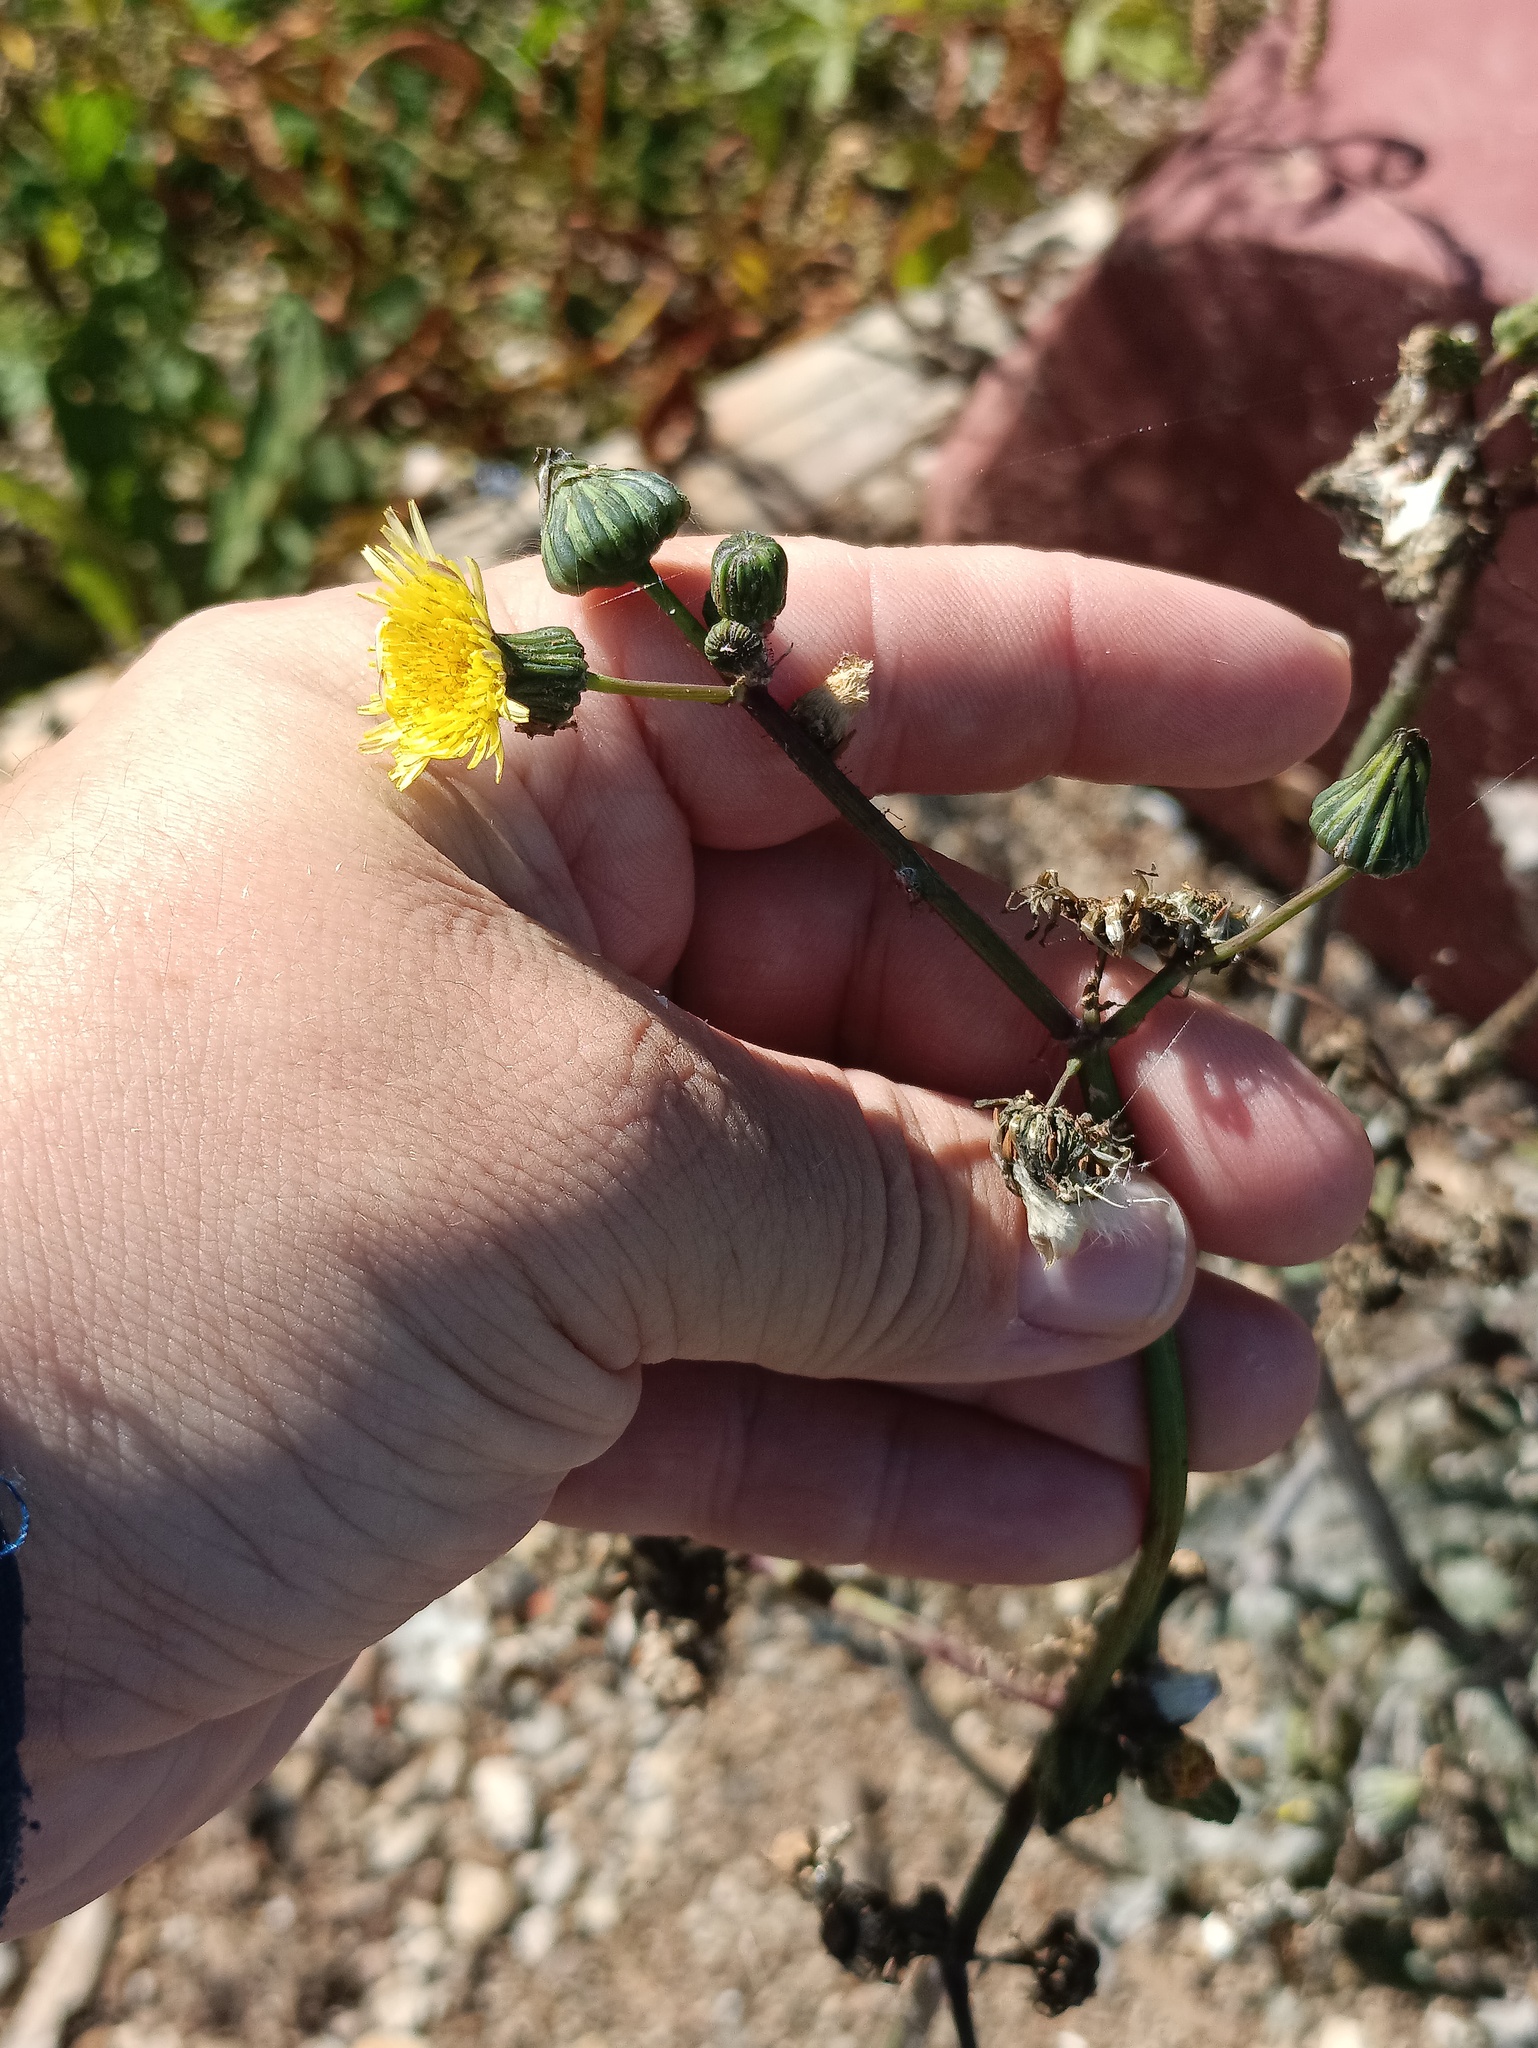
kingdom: Plantae
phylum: Tracheophyta
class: Magnoliopsida
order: Asterales
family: Asteraceae
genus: Sonchus
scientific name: Sonchus oleraceus
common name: Common sowthistle
